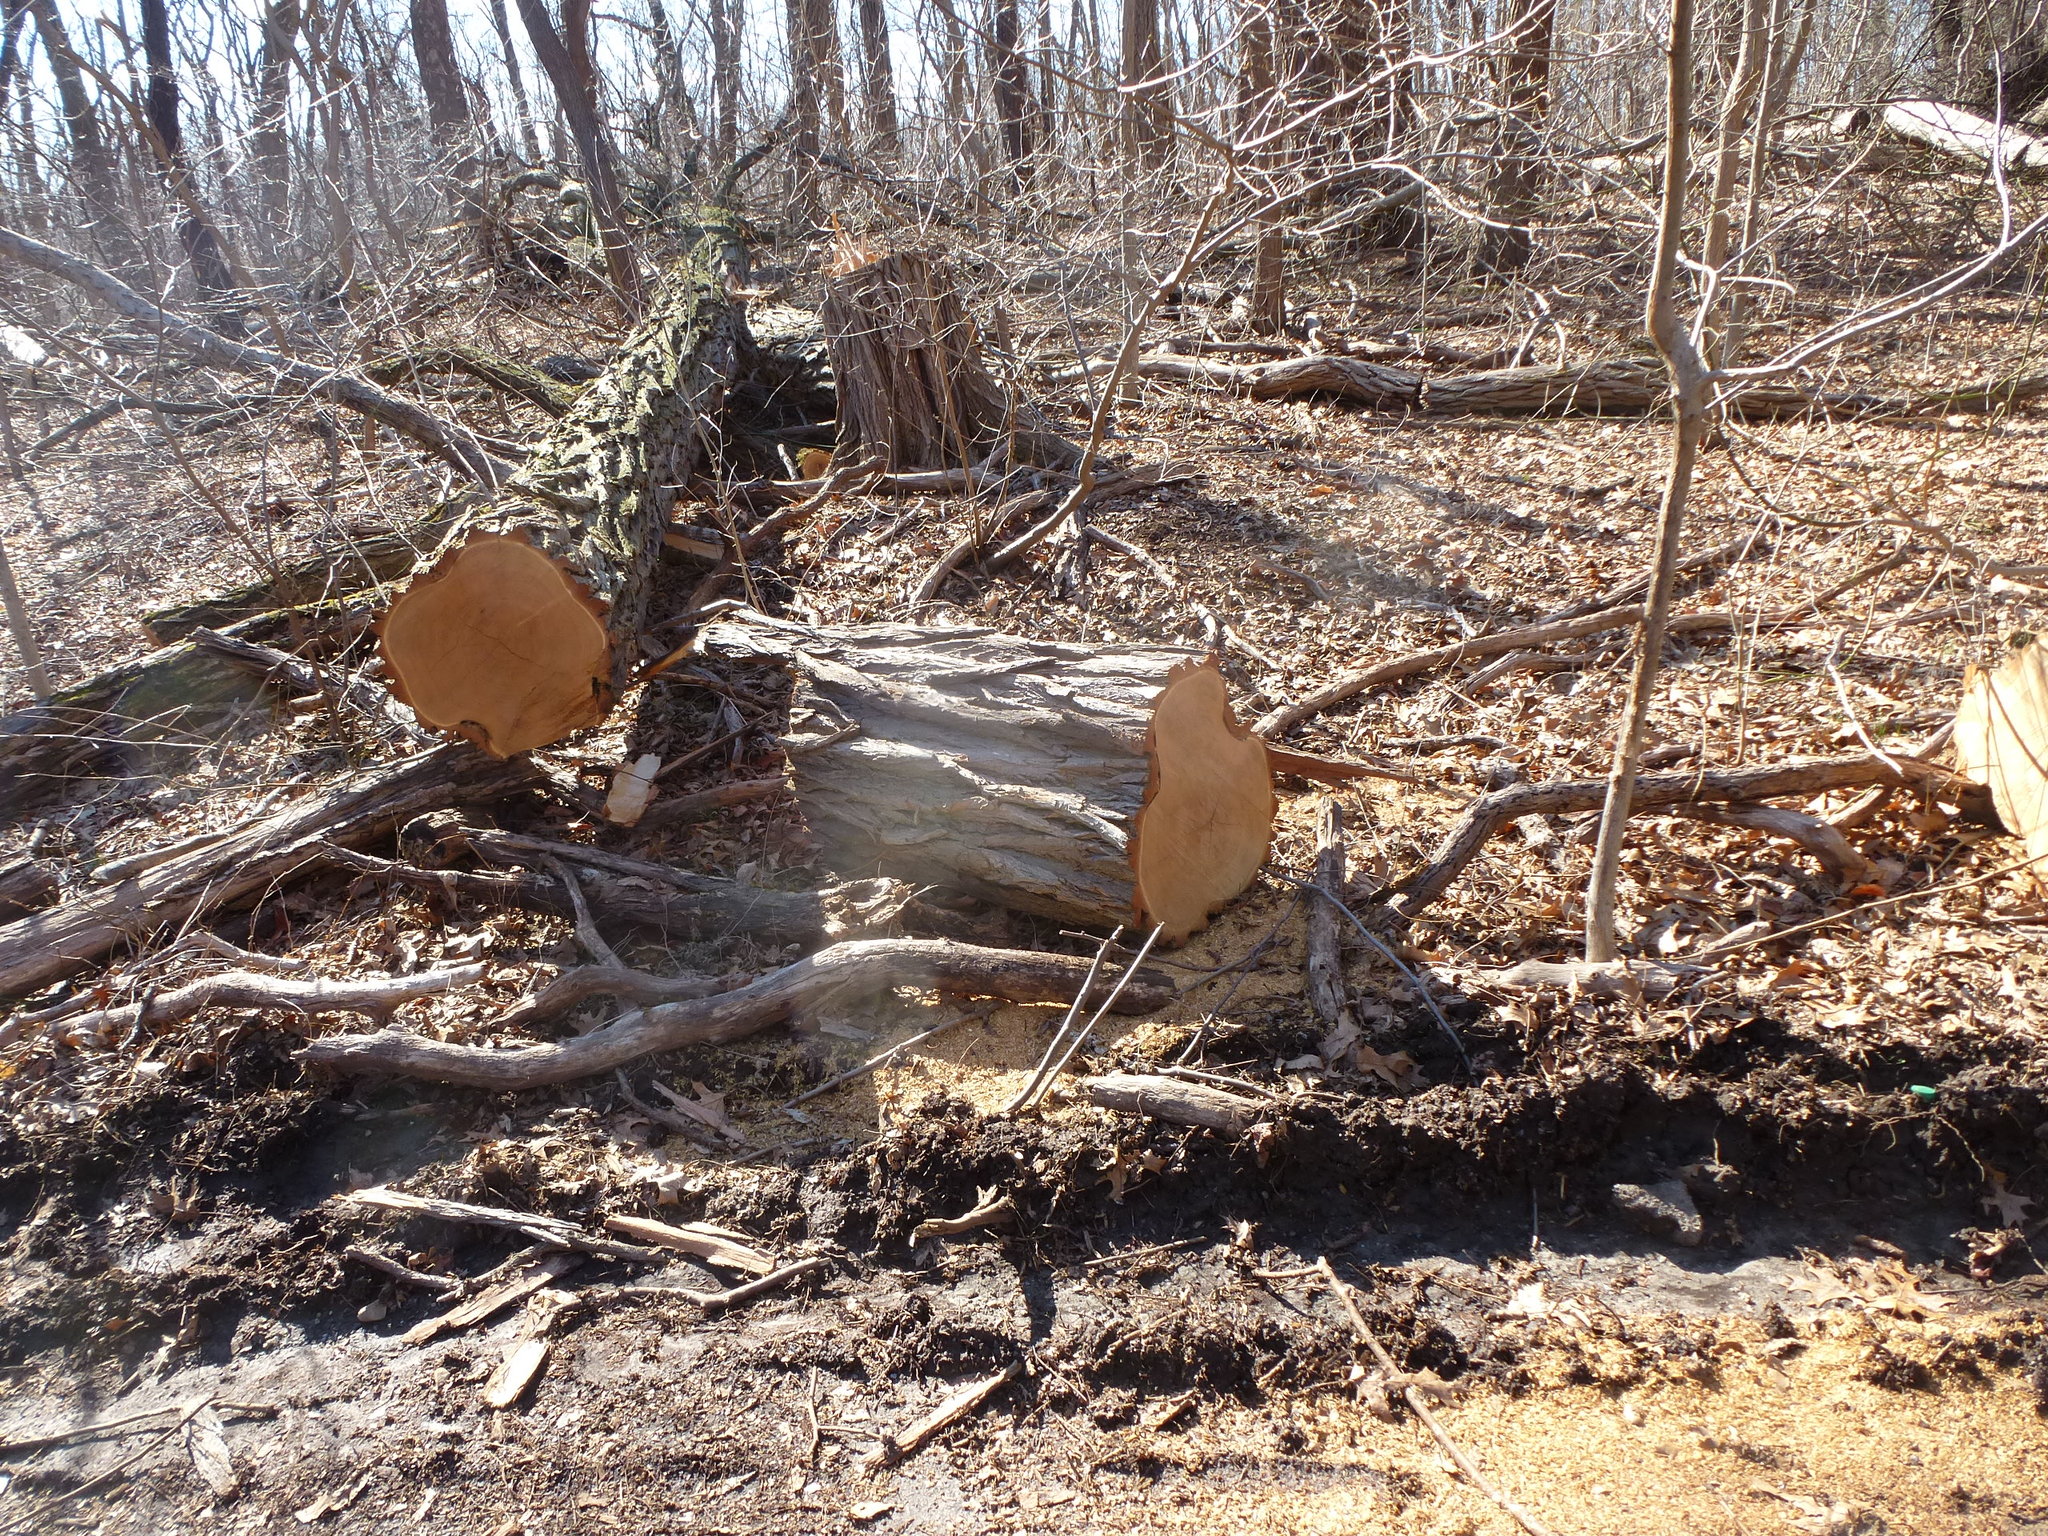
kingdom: Plantae
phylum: Tracheophyta
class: Magnoliopsida
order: Fabales
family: Fabaceae
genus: Robinia
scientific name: Robinia pseudoacacia
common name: Black locust
